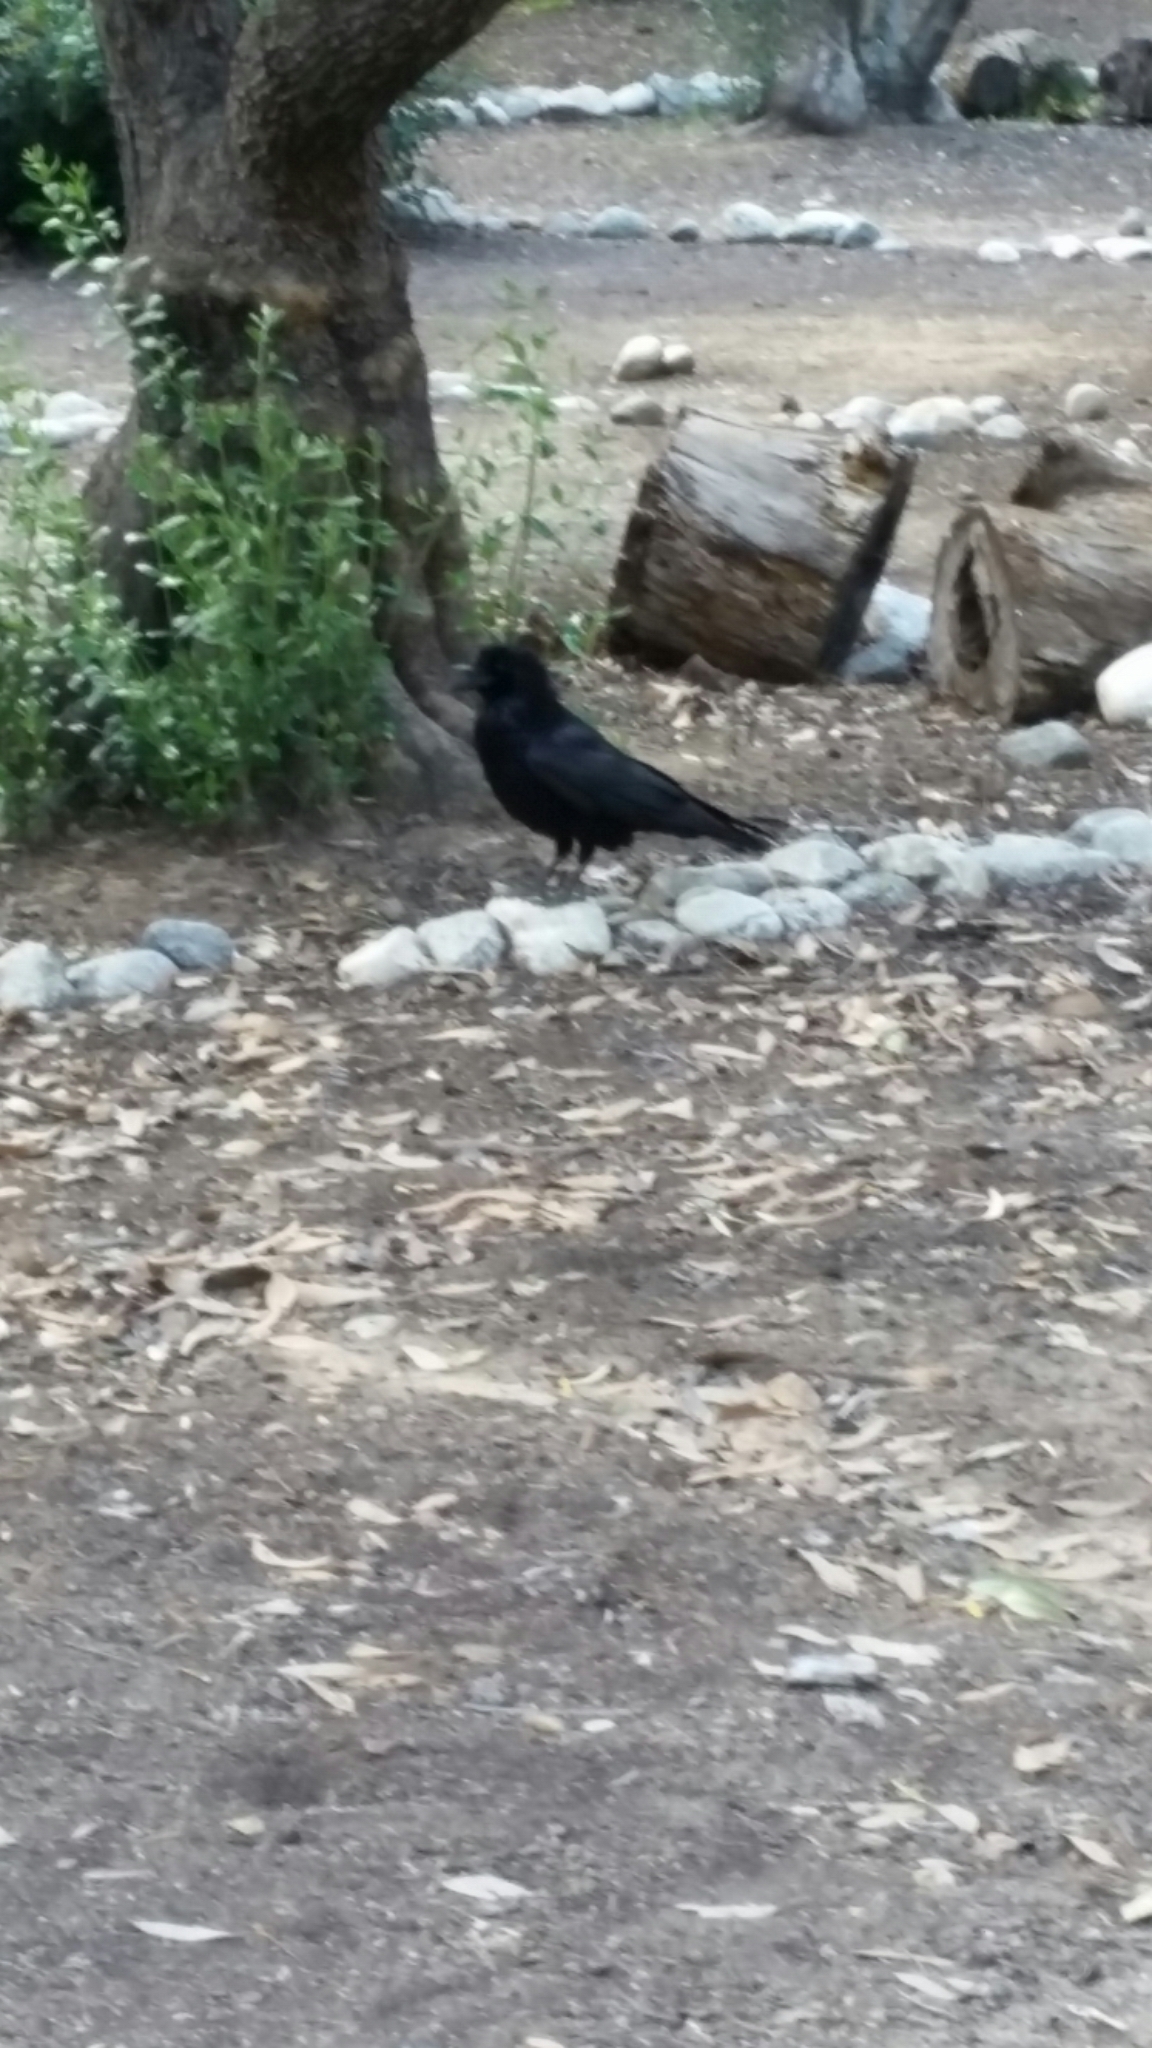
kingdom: Animalia
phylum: Chordata
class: Aves
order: Passeriformes
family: Corvidae
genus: Corvus
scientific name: Corvus corax
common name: Common raven
